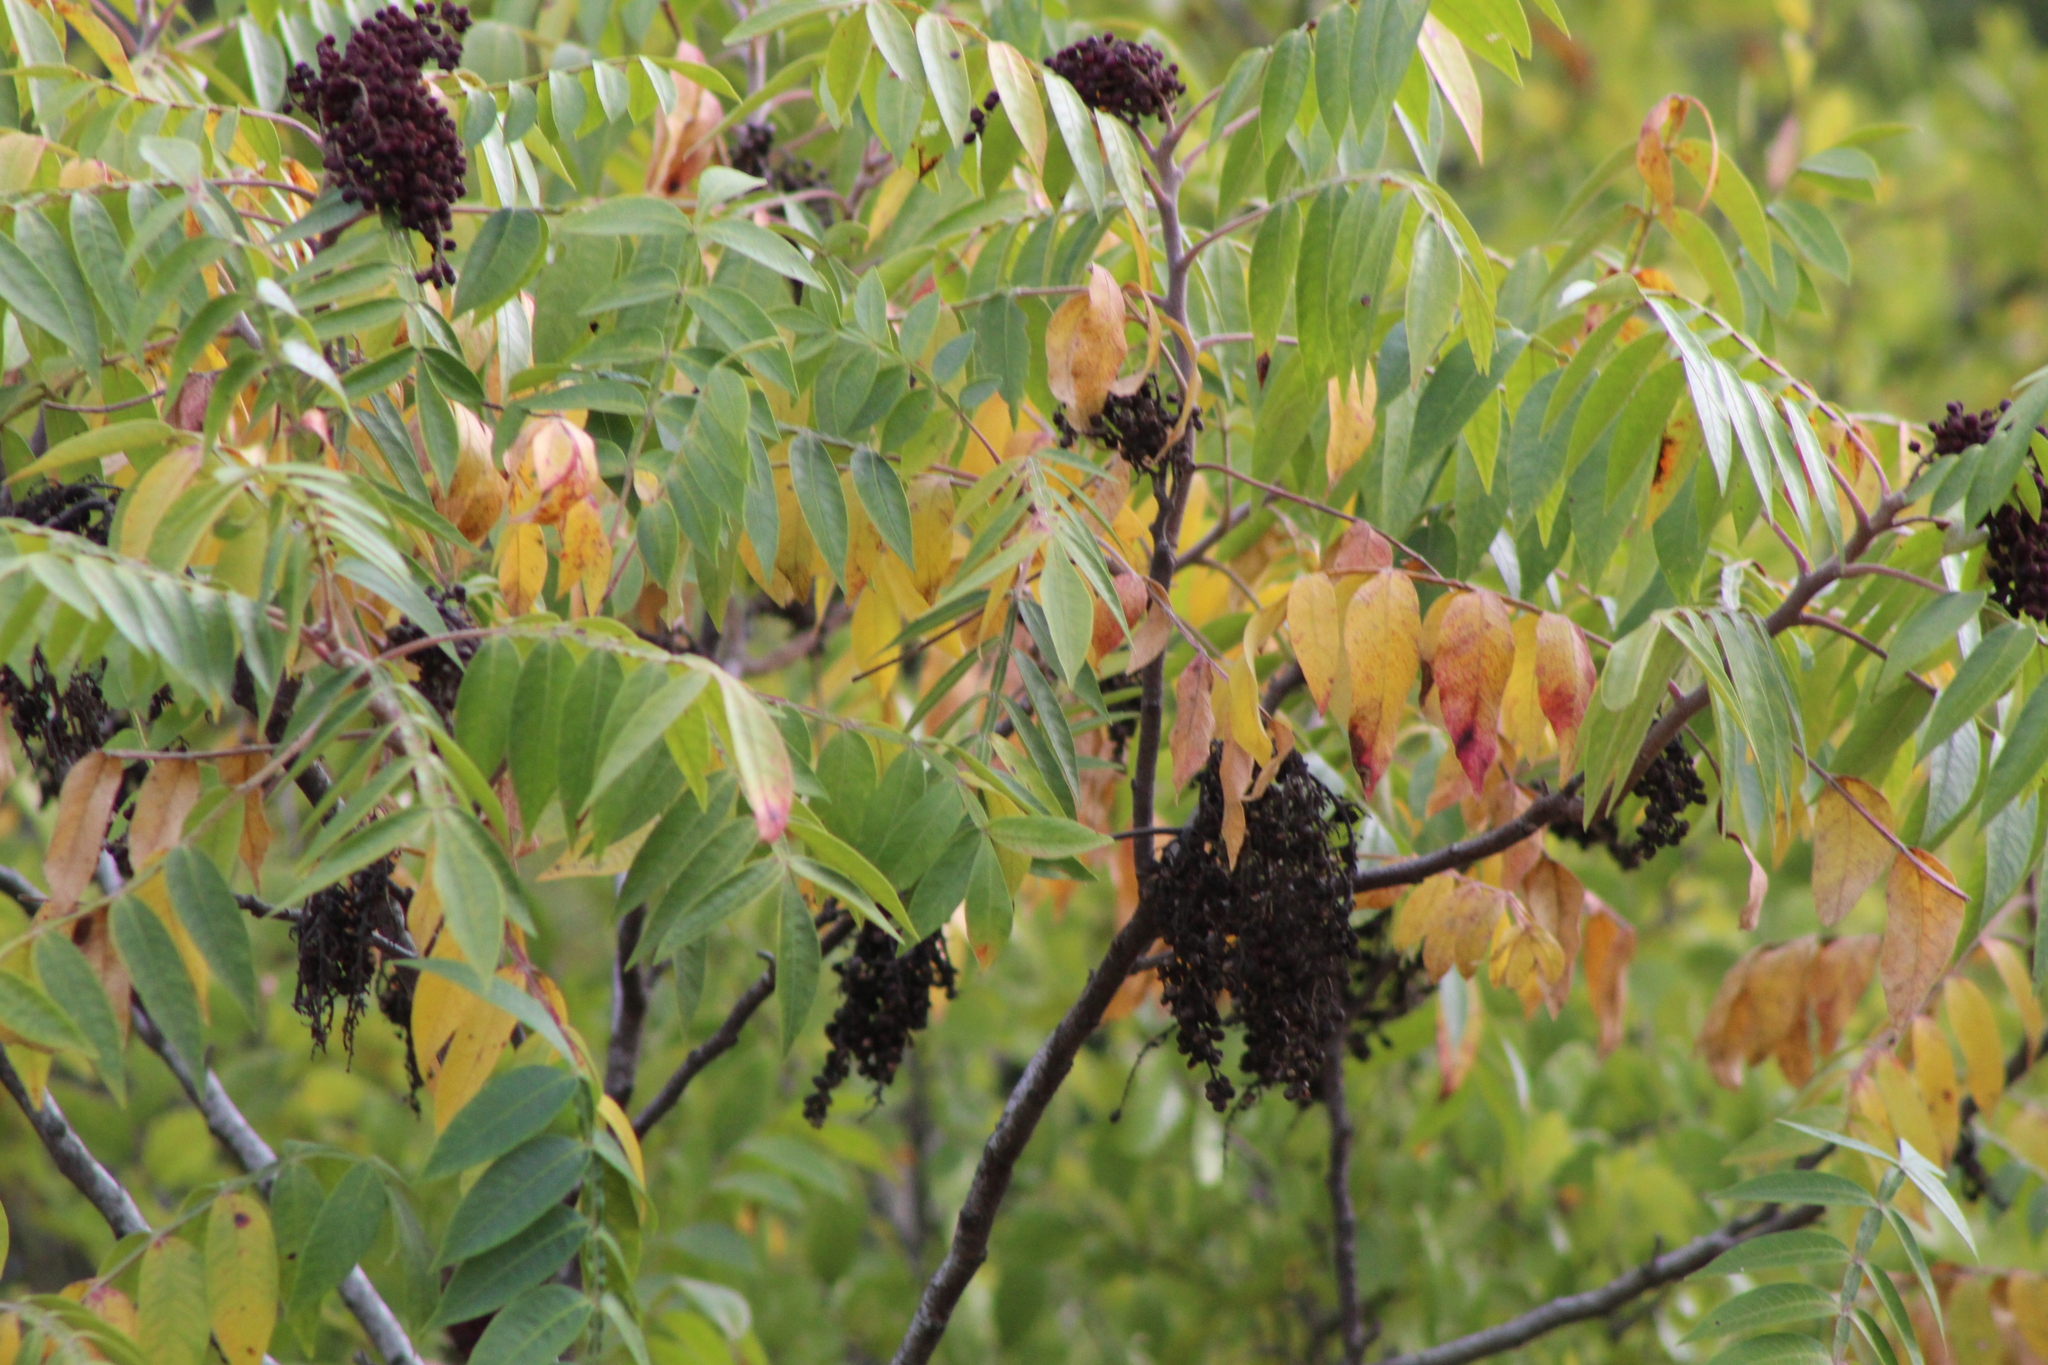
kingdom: Plantae
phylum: Tracheophyta
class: Magnoliopsida
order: Sapindales
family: Anacardiaceae
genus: Rhus
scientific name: Rhus copallina
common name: Shining sumac
